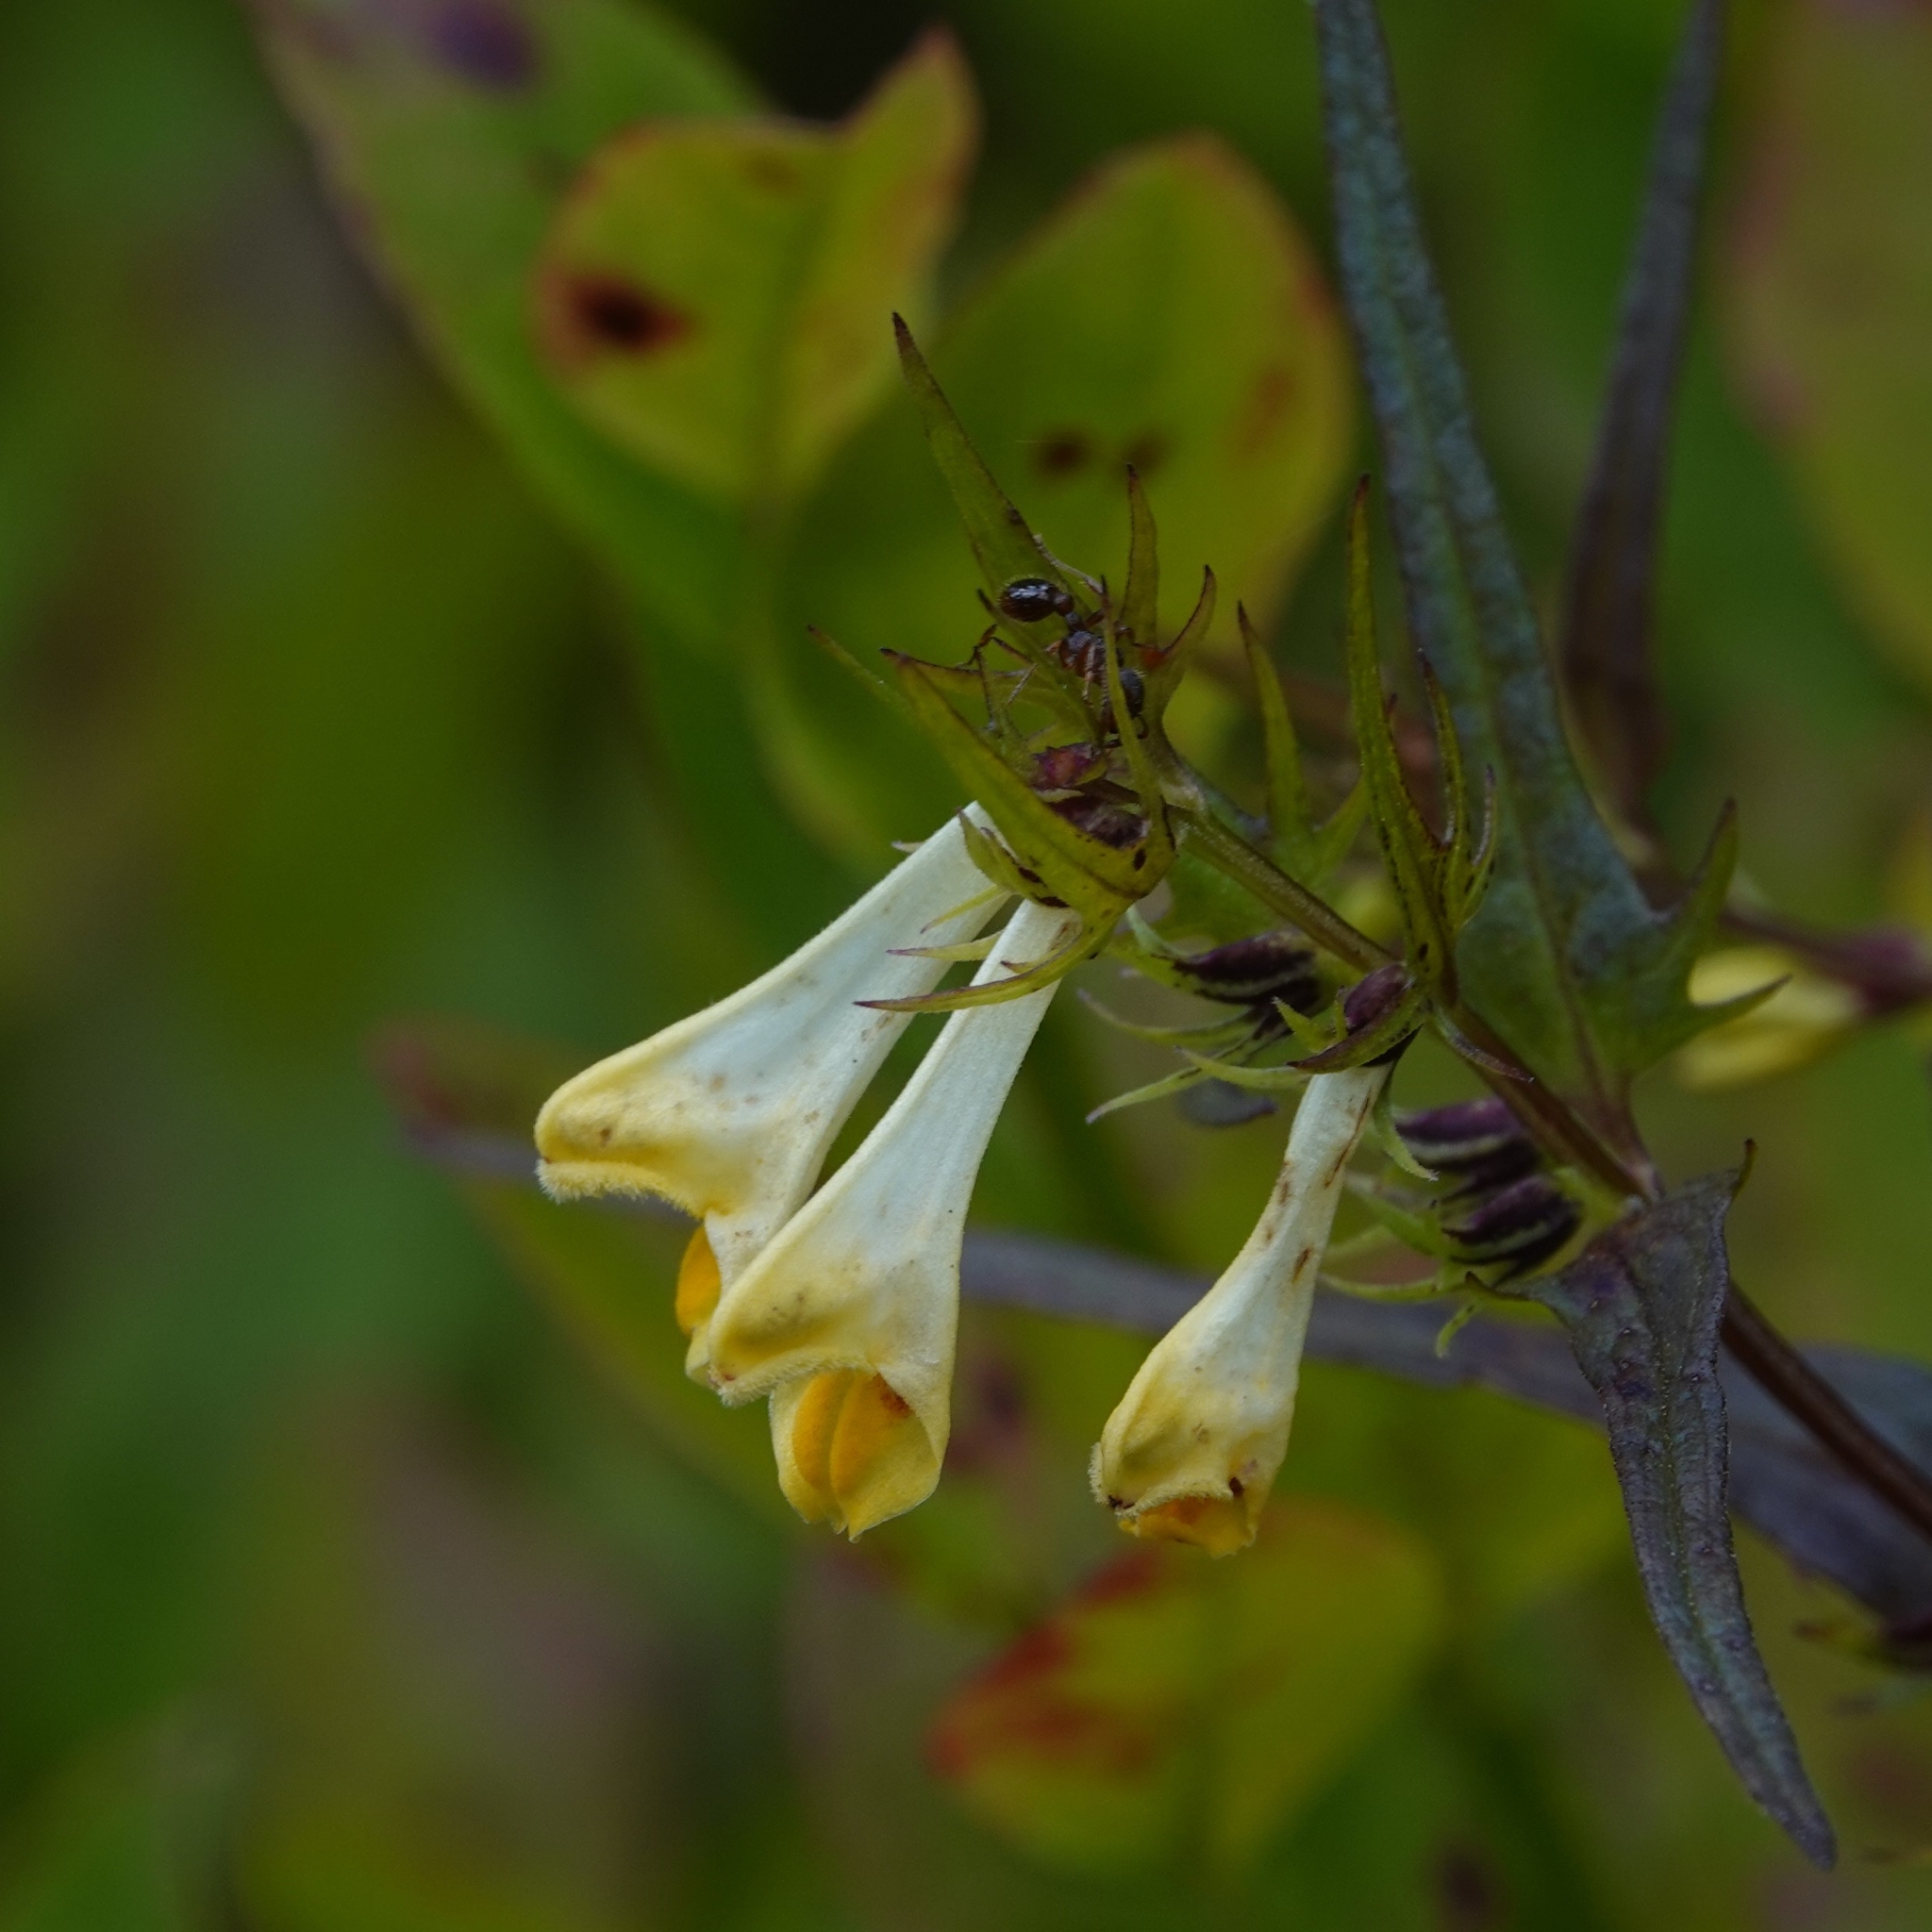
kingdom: Plantae
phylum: Tracheophyta
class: Magnoliopsida
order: Lamiales
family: Orobanchaceae
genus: Melampyrum
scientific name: Melampyrum pratense
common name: Common cow-wheat
